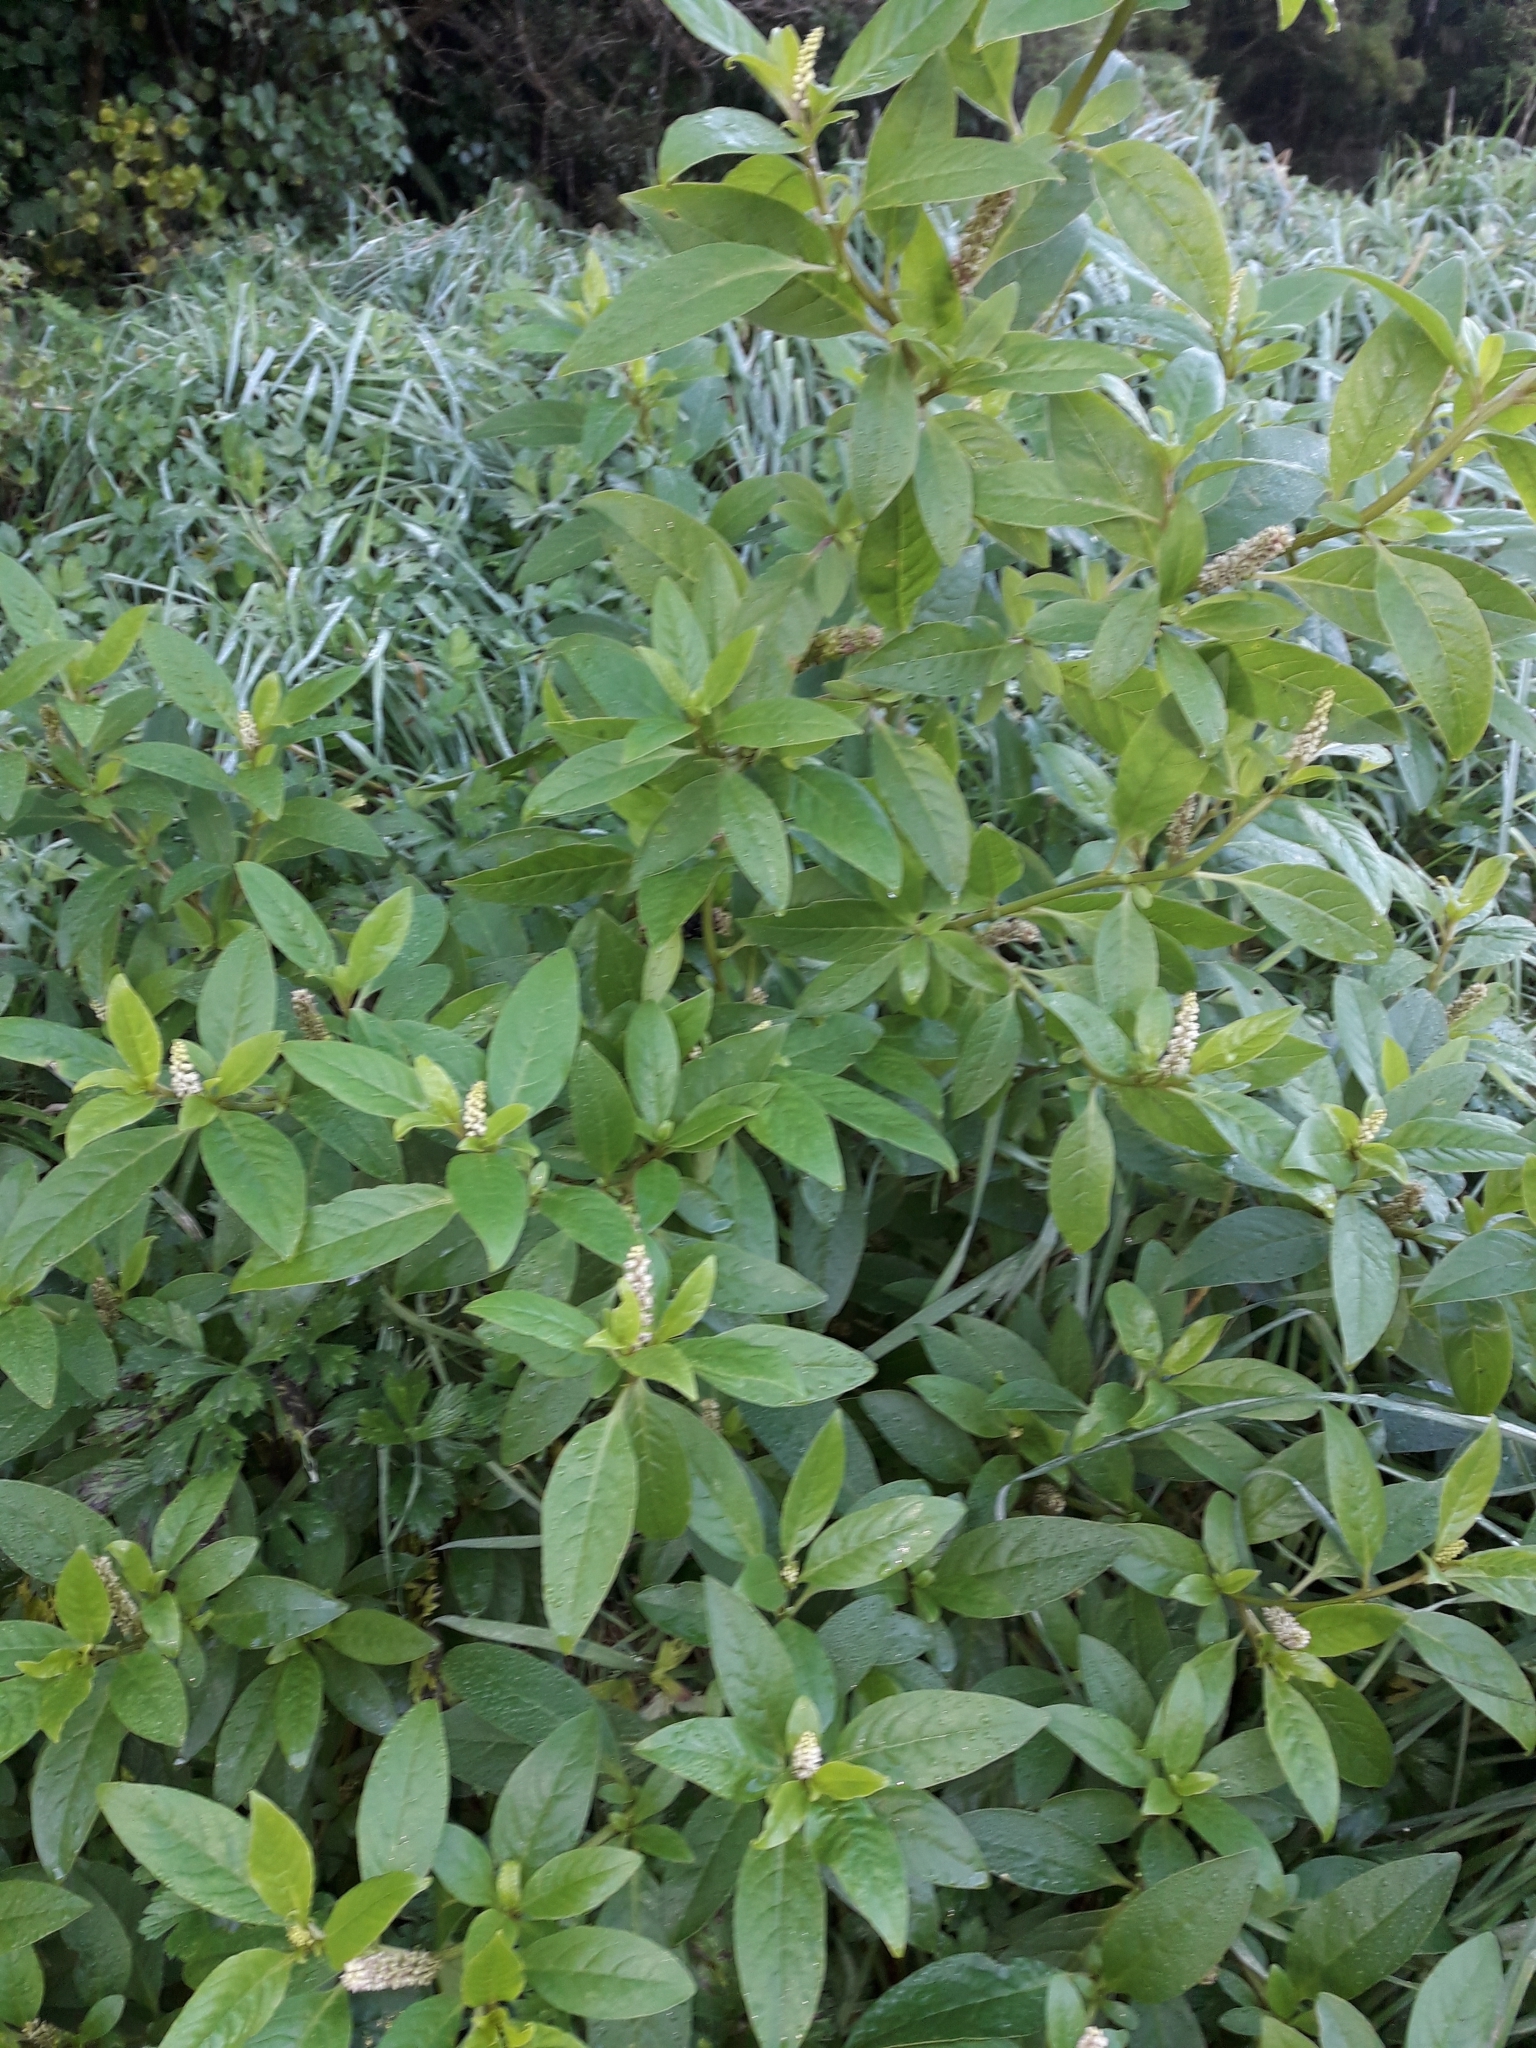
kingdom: Plantae
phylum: Tracheophyta
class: Magnoliopsida
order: Caryophyllales
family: Phytolaccaceae
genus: Phytolacca
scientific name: Phytolacca icosandra
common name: Button pokeweed
